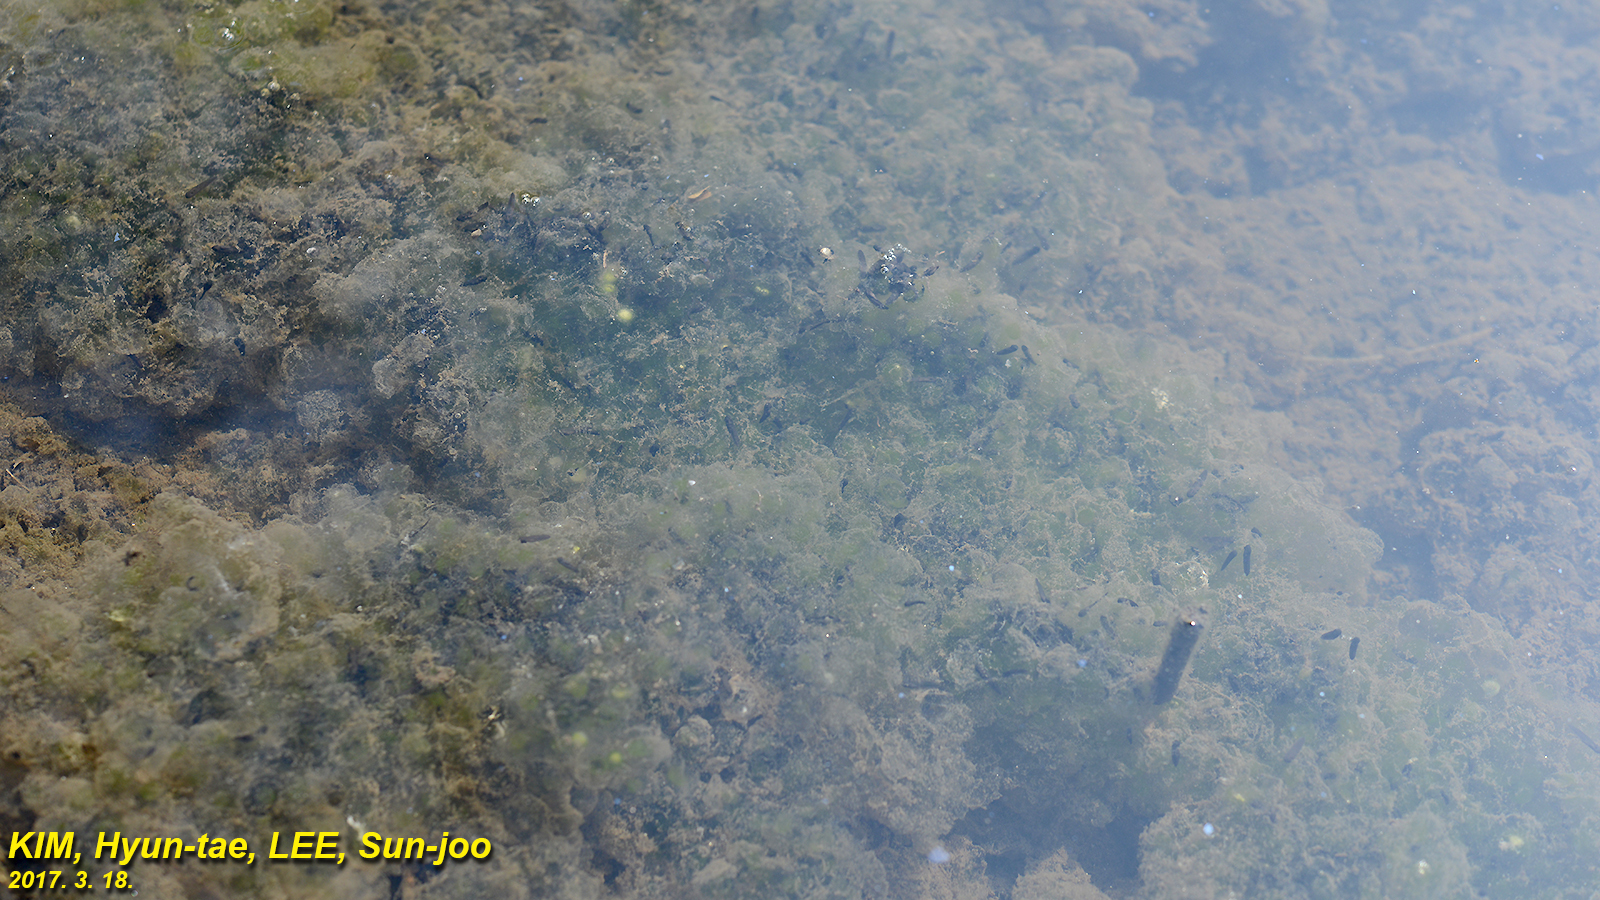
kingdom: Animalia
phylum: Chordata
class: Amphibia
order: Anura
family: Ranidae
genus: Rana
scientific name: Rana uenoi
